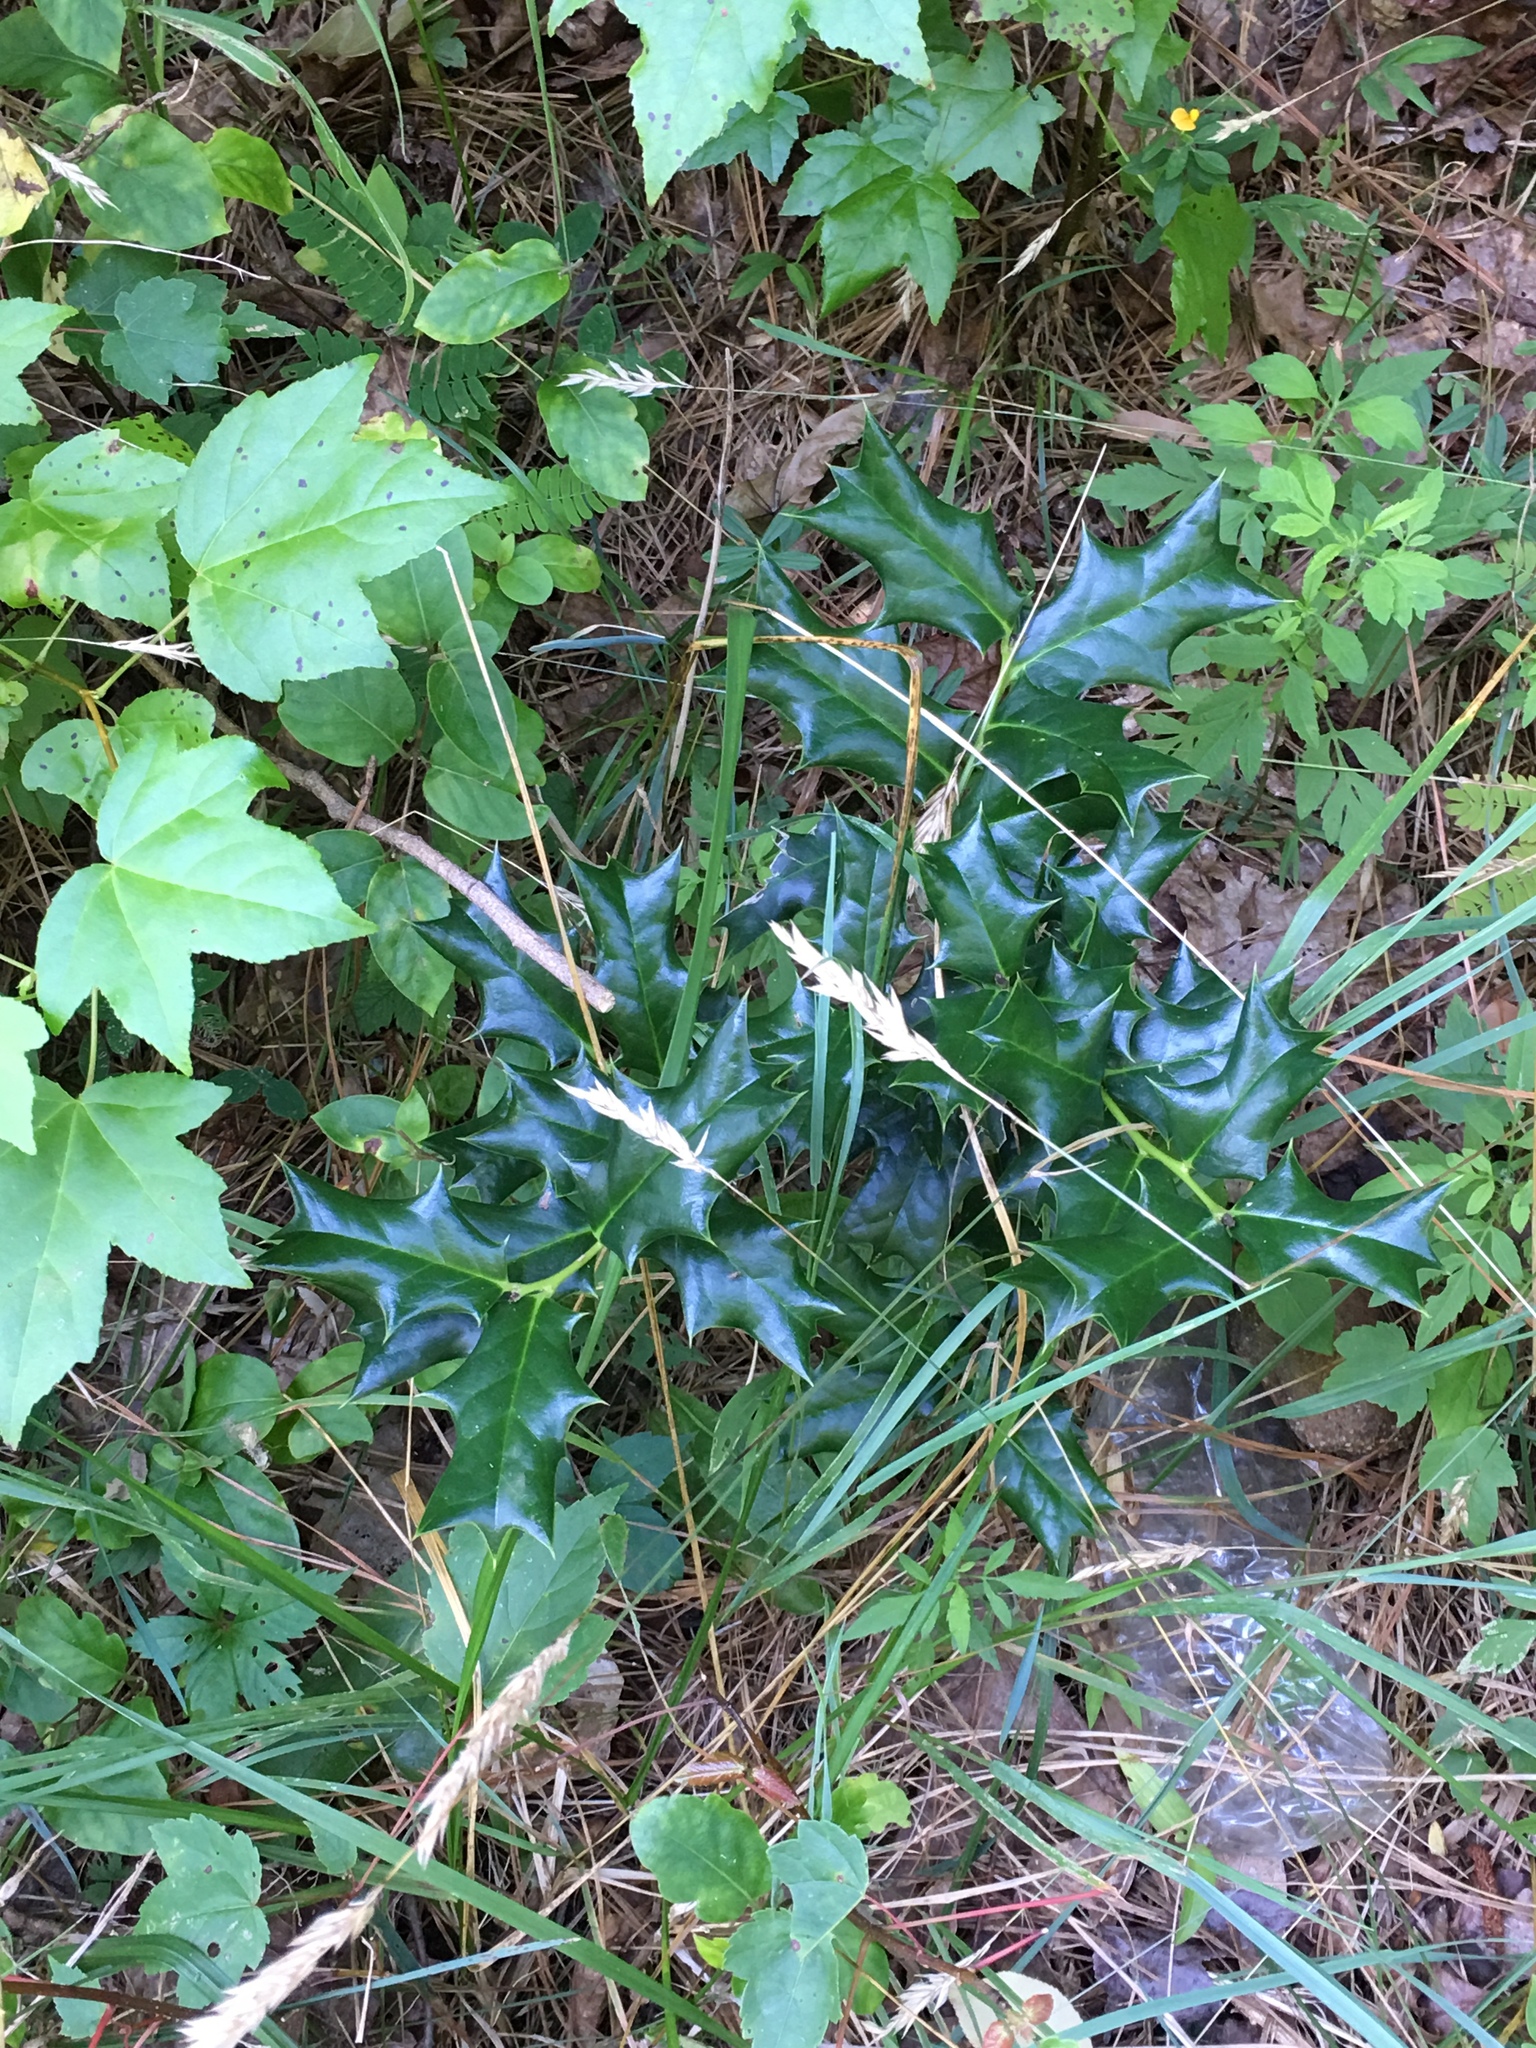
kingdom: Plantae
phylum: Tracheophyta
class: Magnoliopsida
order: Aquifoliales
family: Aquifoliaceae
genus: Ilex
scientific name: Ilex cornuta
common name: Chinese holly
